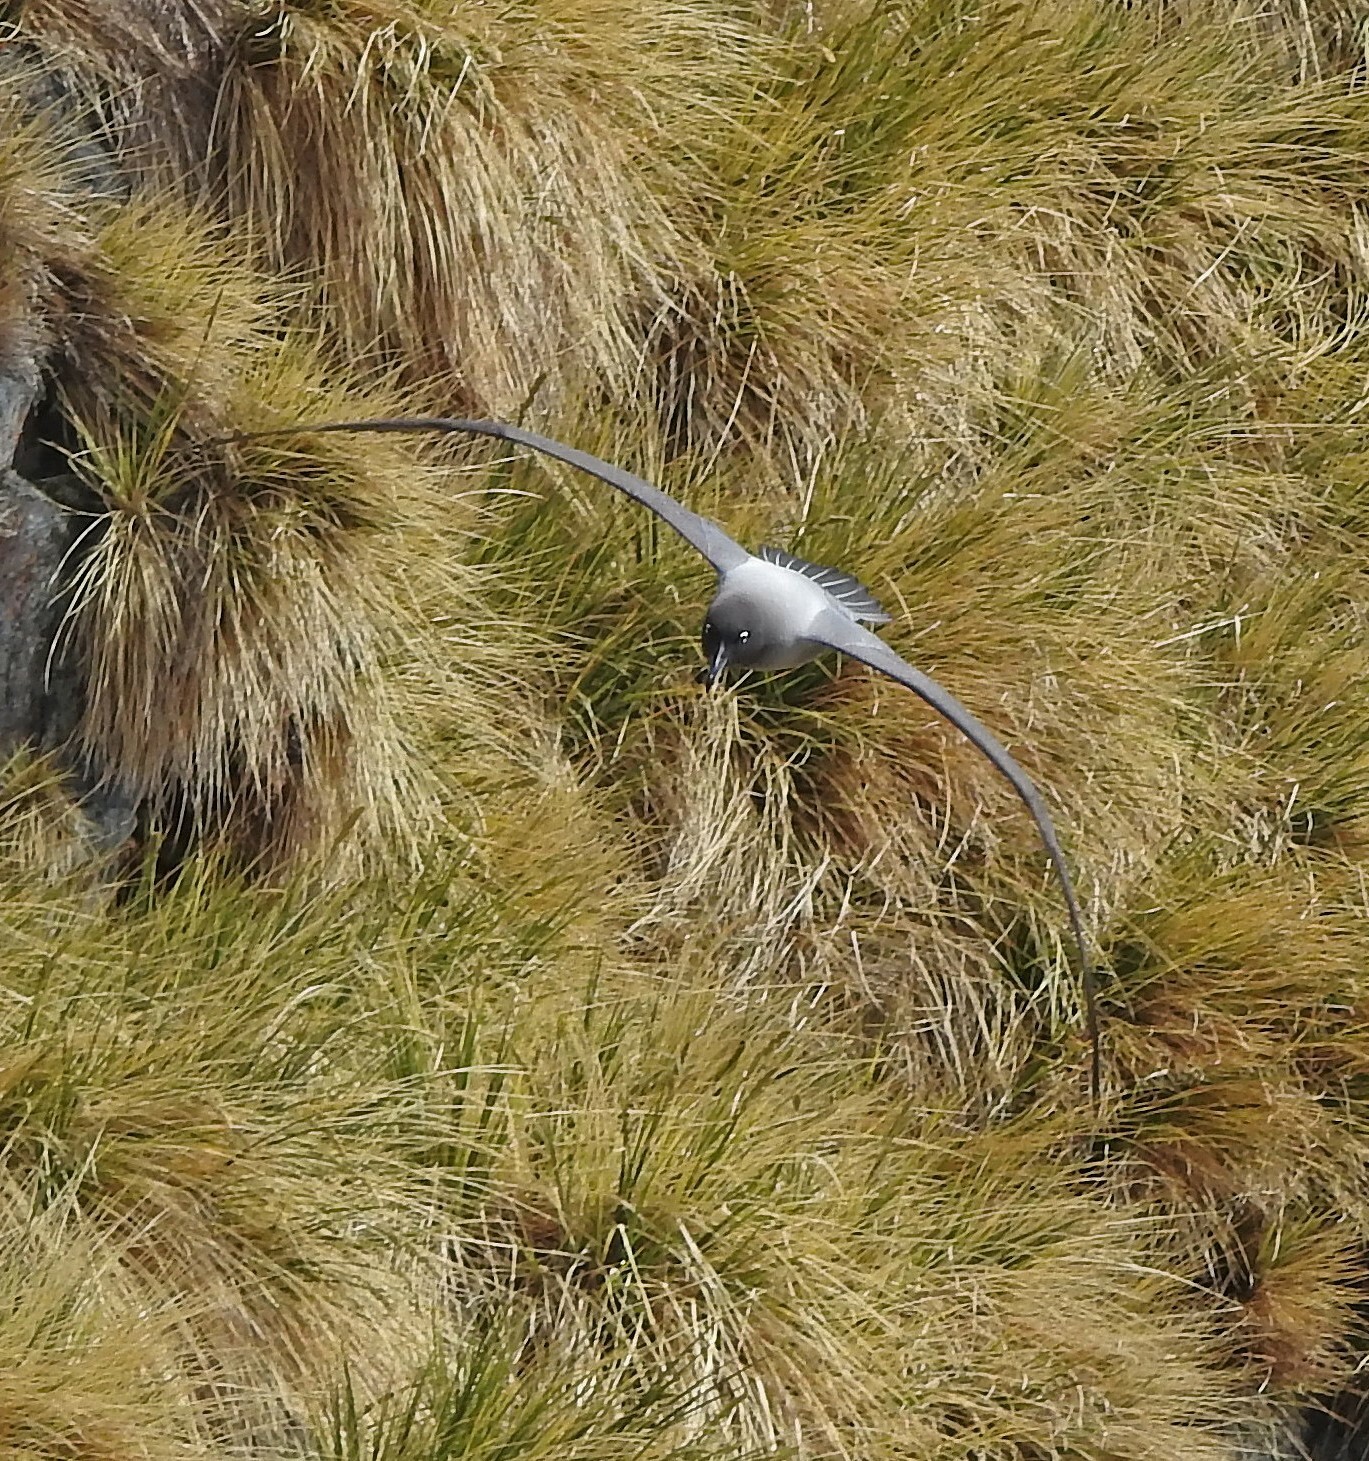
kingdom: Animalia
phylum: Chordata
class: Aves
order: Procellariiformes
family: Diomedeidae
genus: Phoebetria
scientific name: Phoebetria palpebrata
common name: Light-mantled albatross
